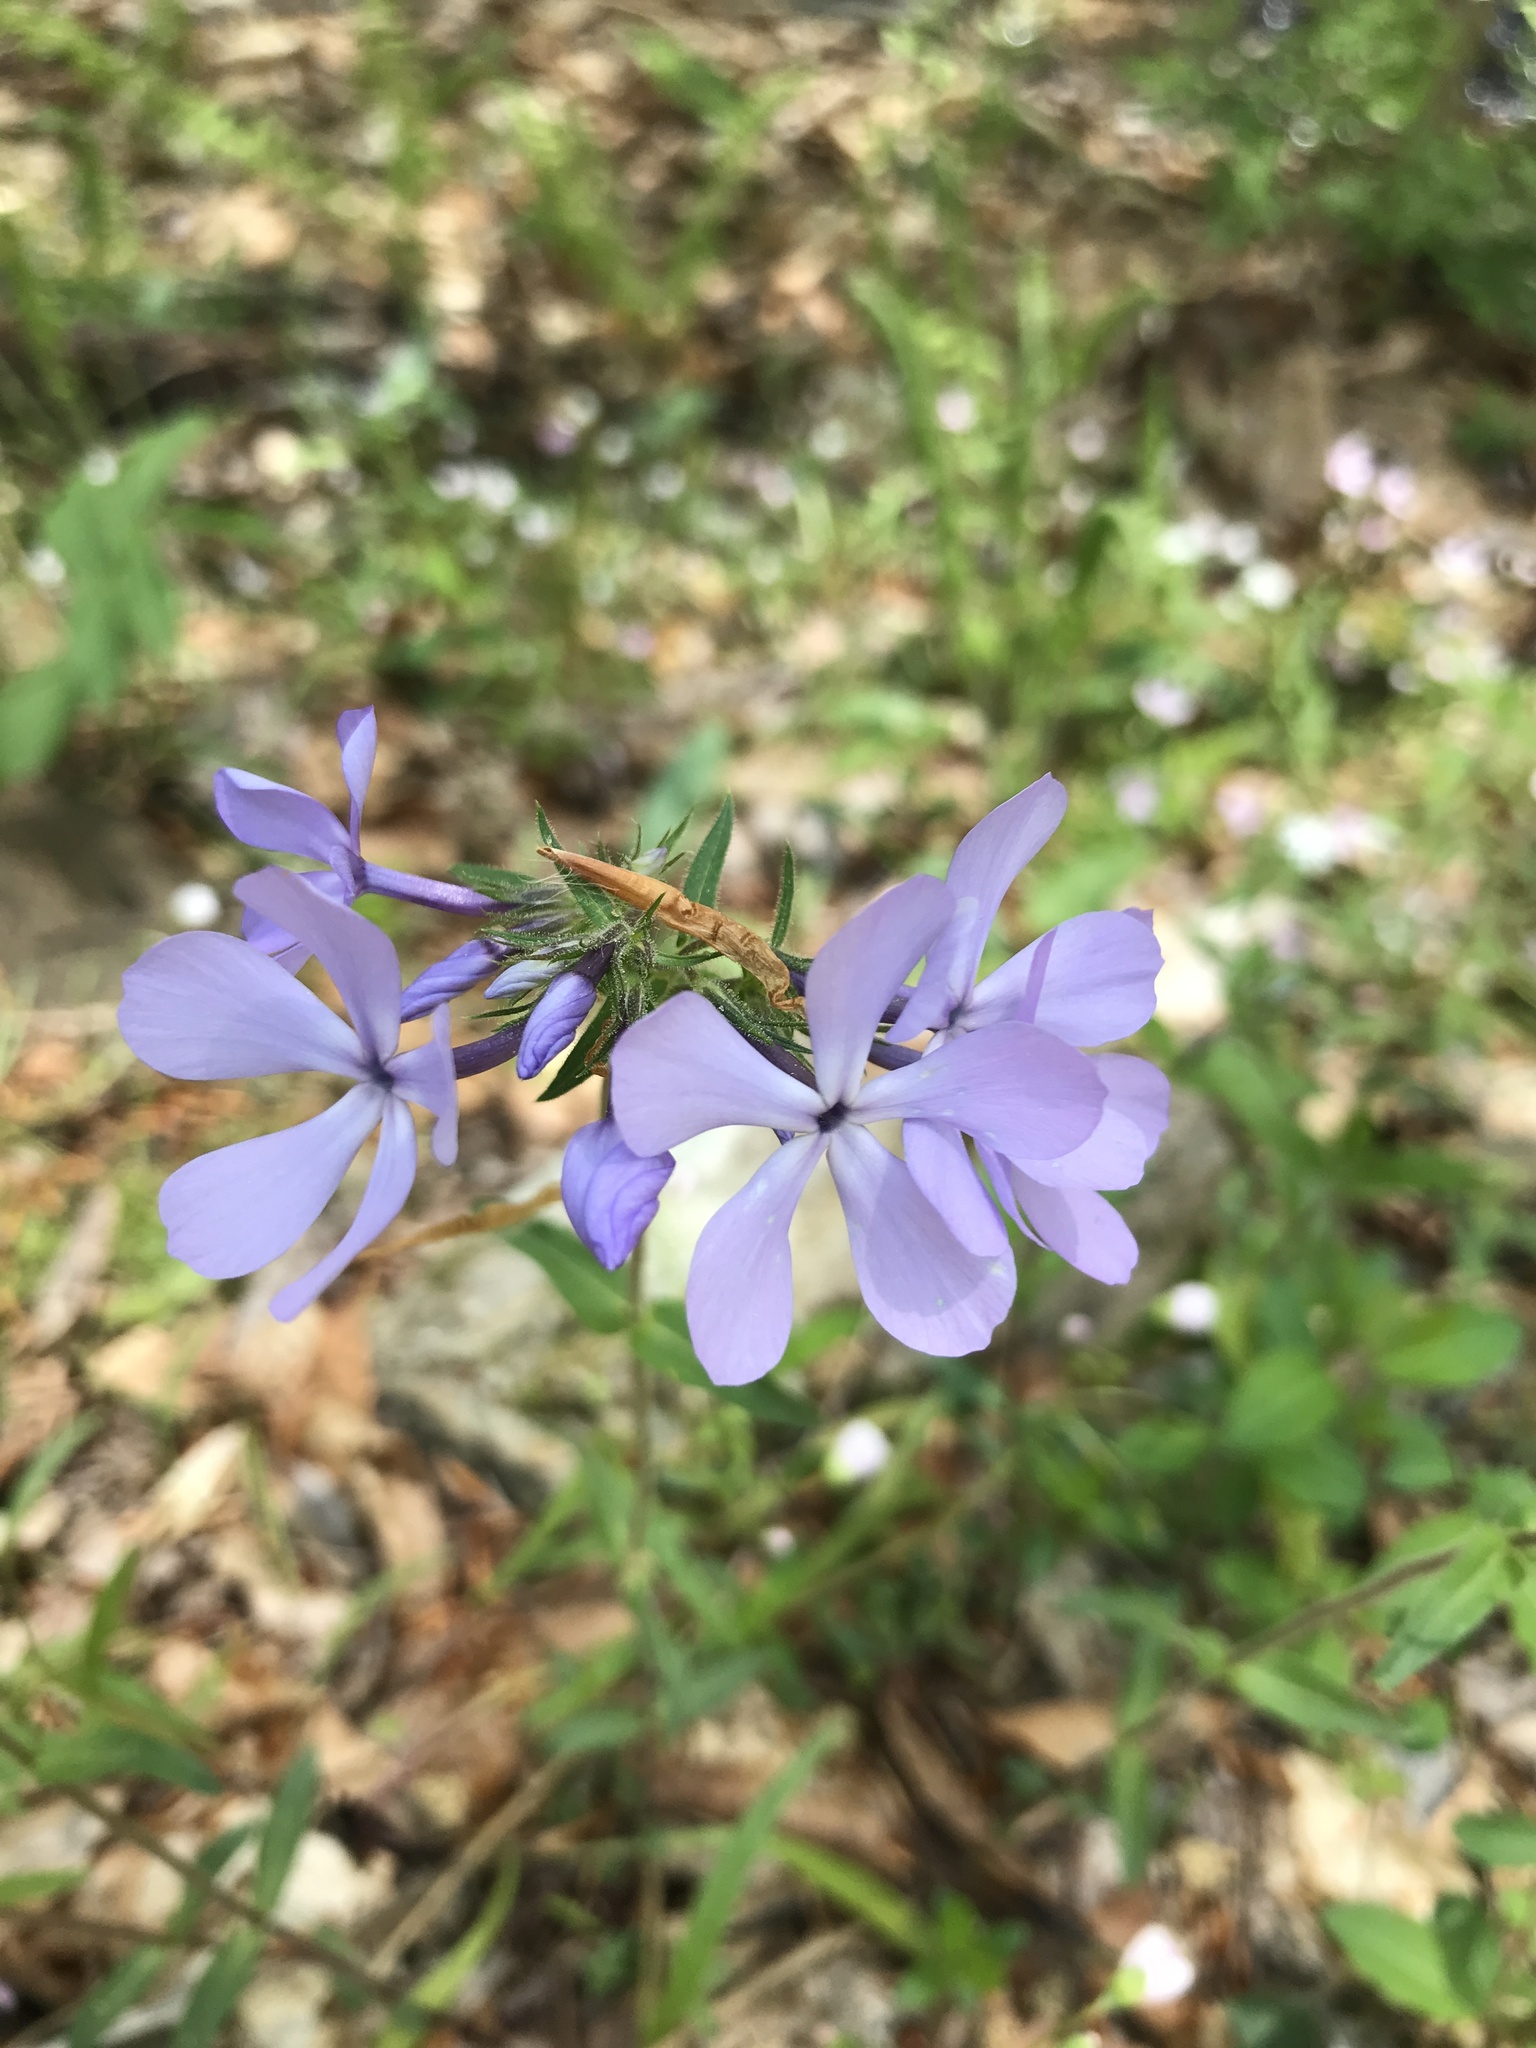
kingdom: Plantae
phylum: Tracheophyta
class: Magnoliopsida
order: Ericales
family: Polemoniaceae
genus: Phlox
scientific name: Phlox divaricata
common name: Blue phlox
